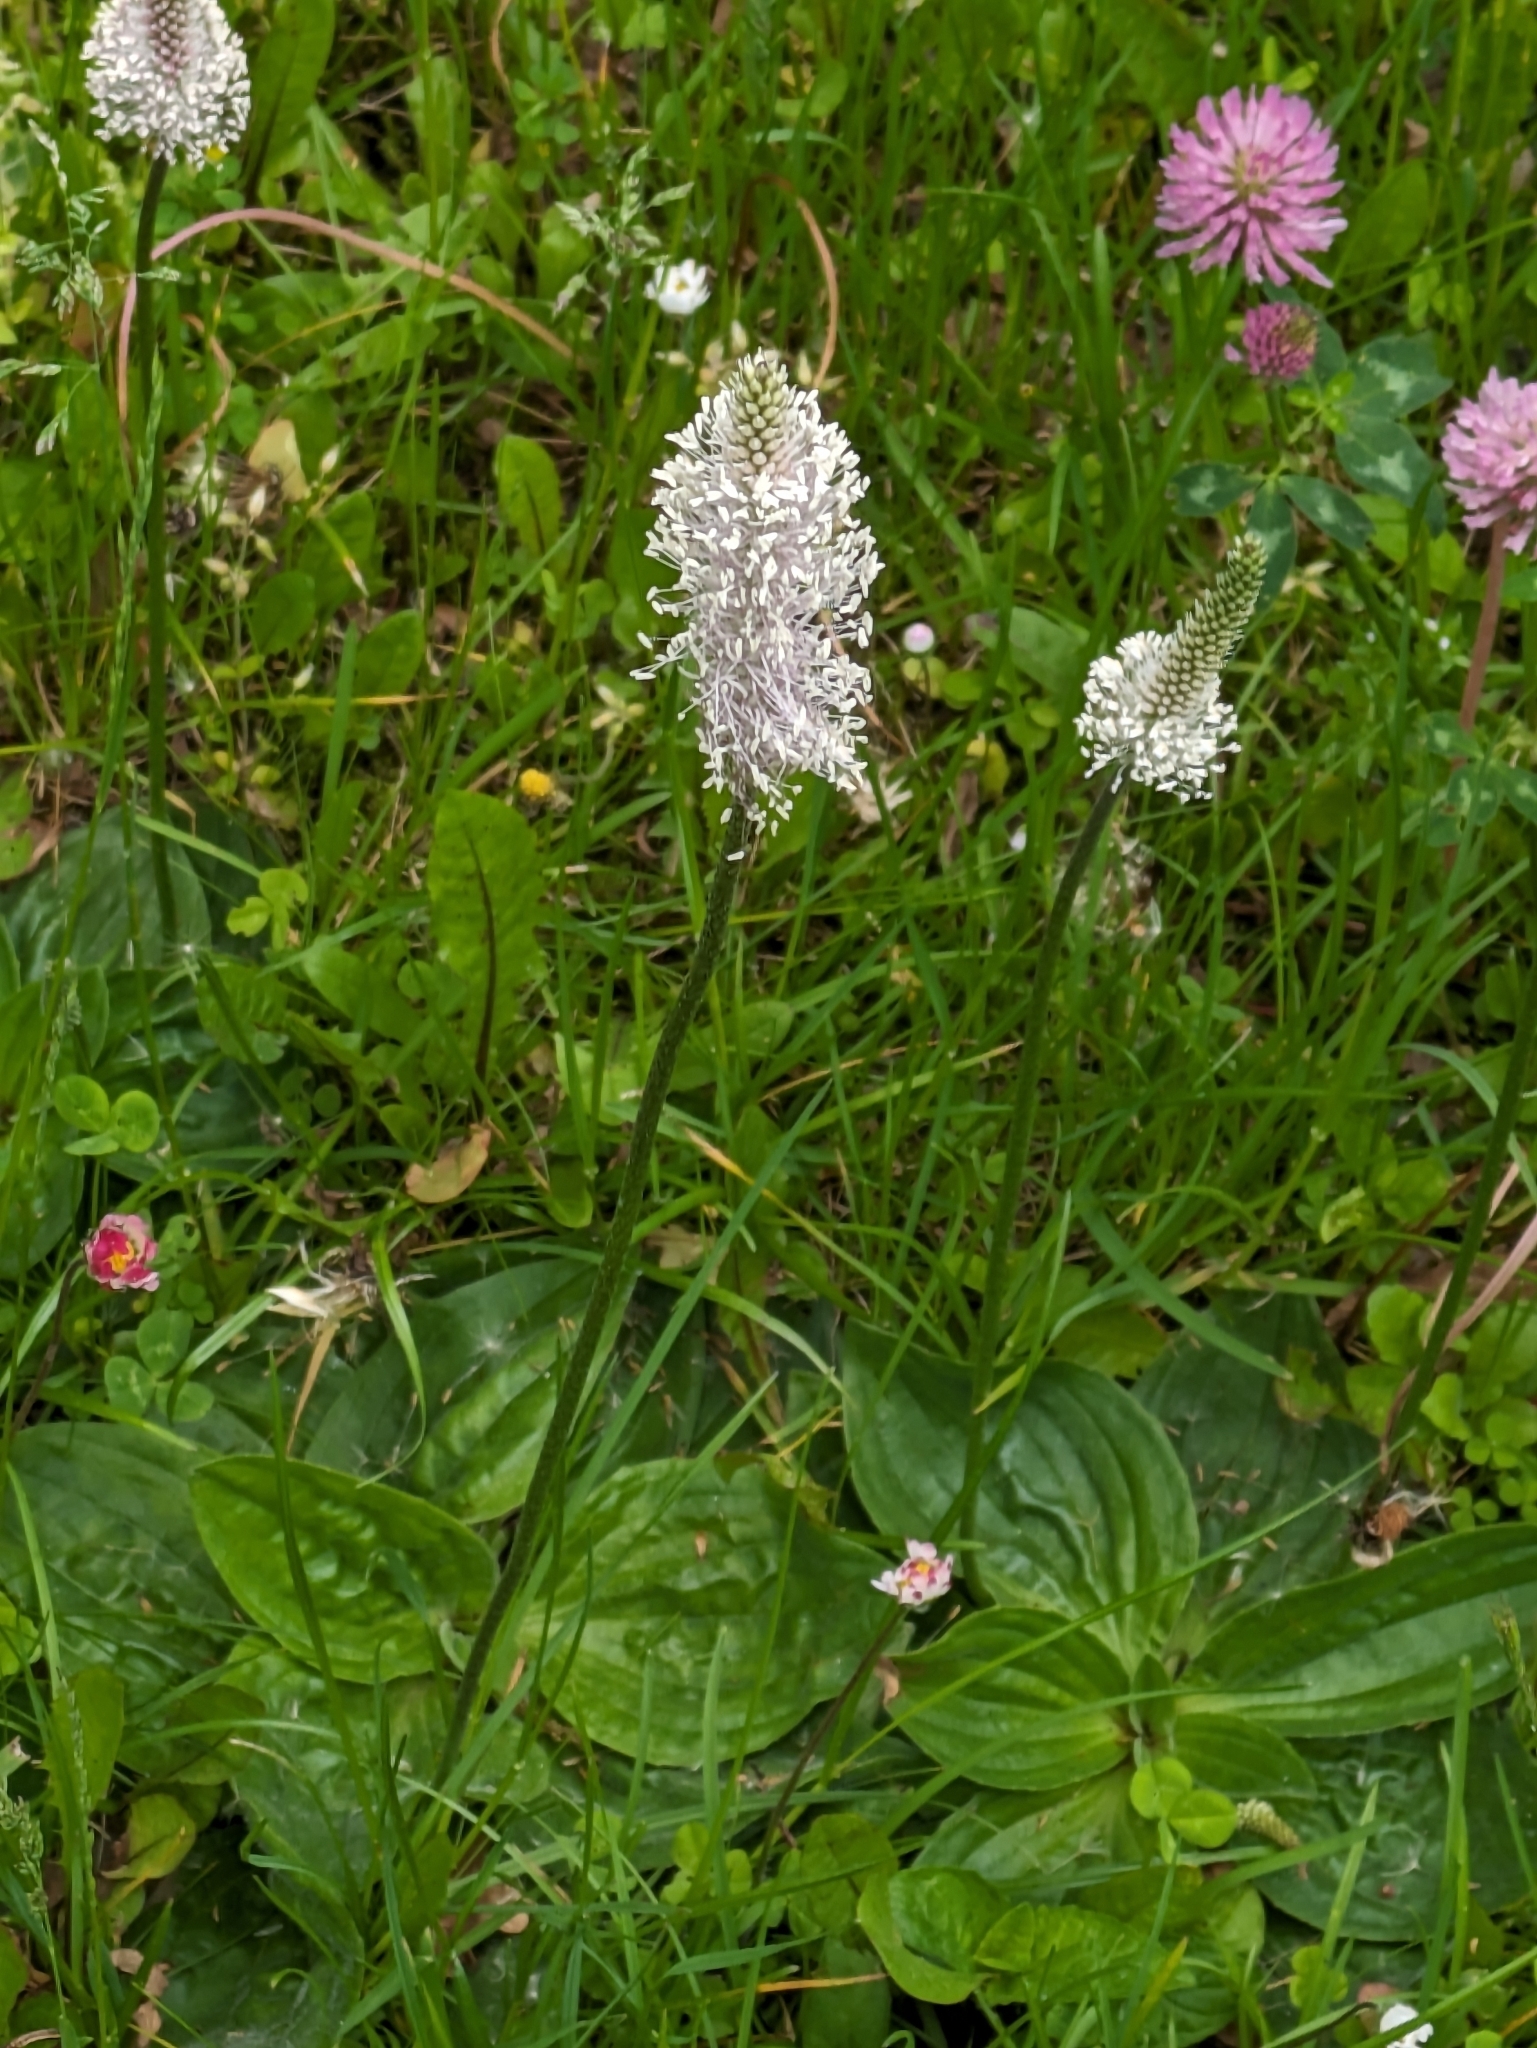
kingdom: Plantae
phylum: Tracheophyta
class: Magnoliopsida
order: Lamiales
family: Plantaginaceae
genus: Plantago
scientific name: Plantago media
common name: Hoary plantain
